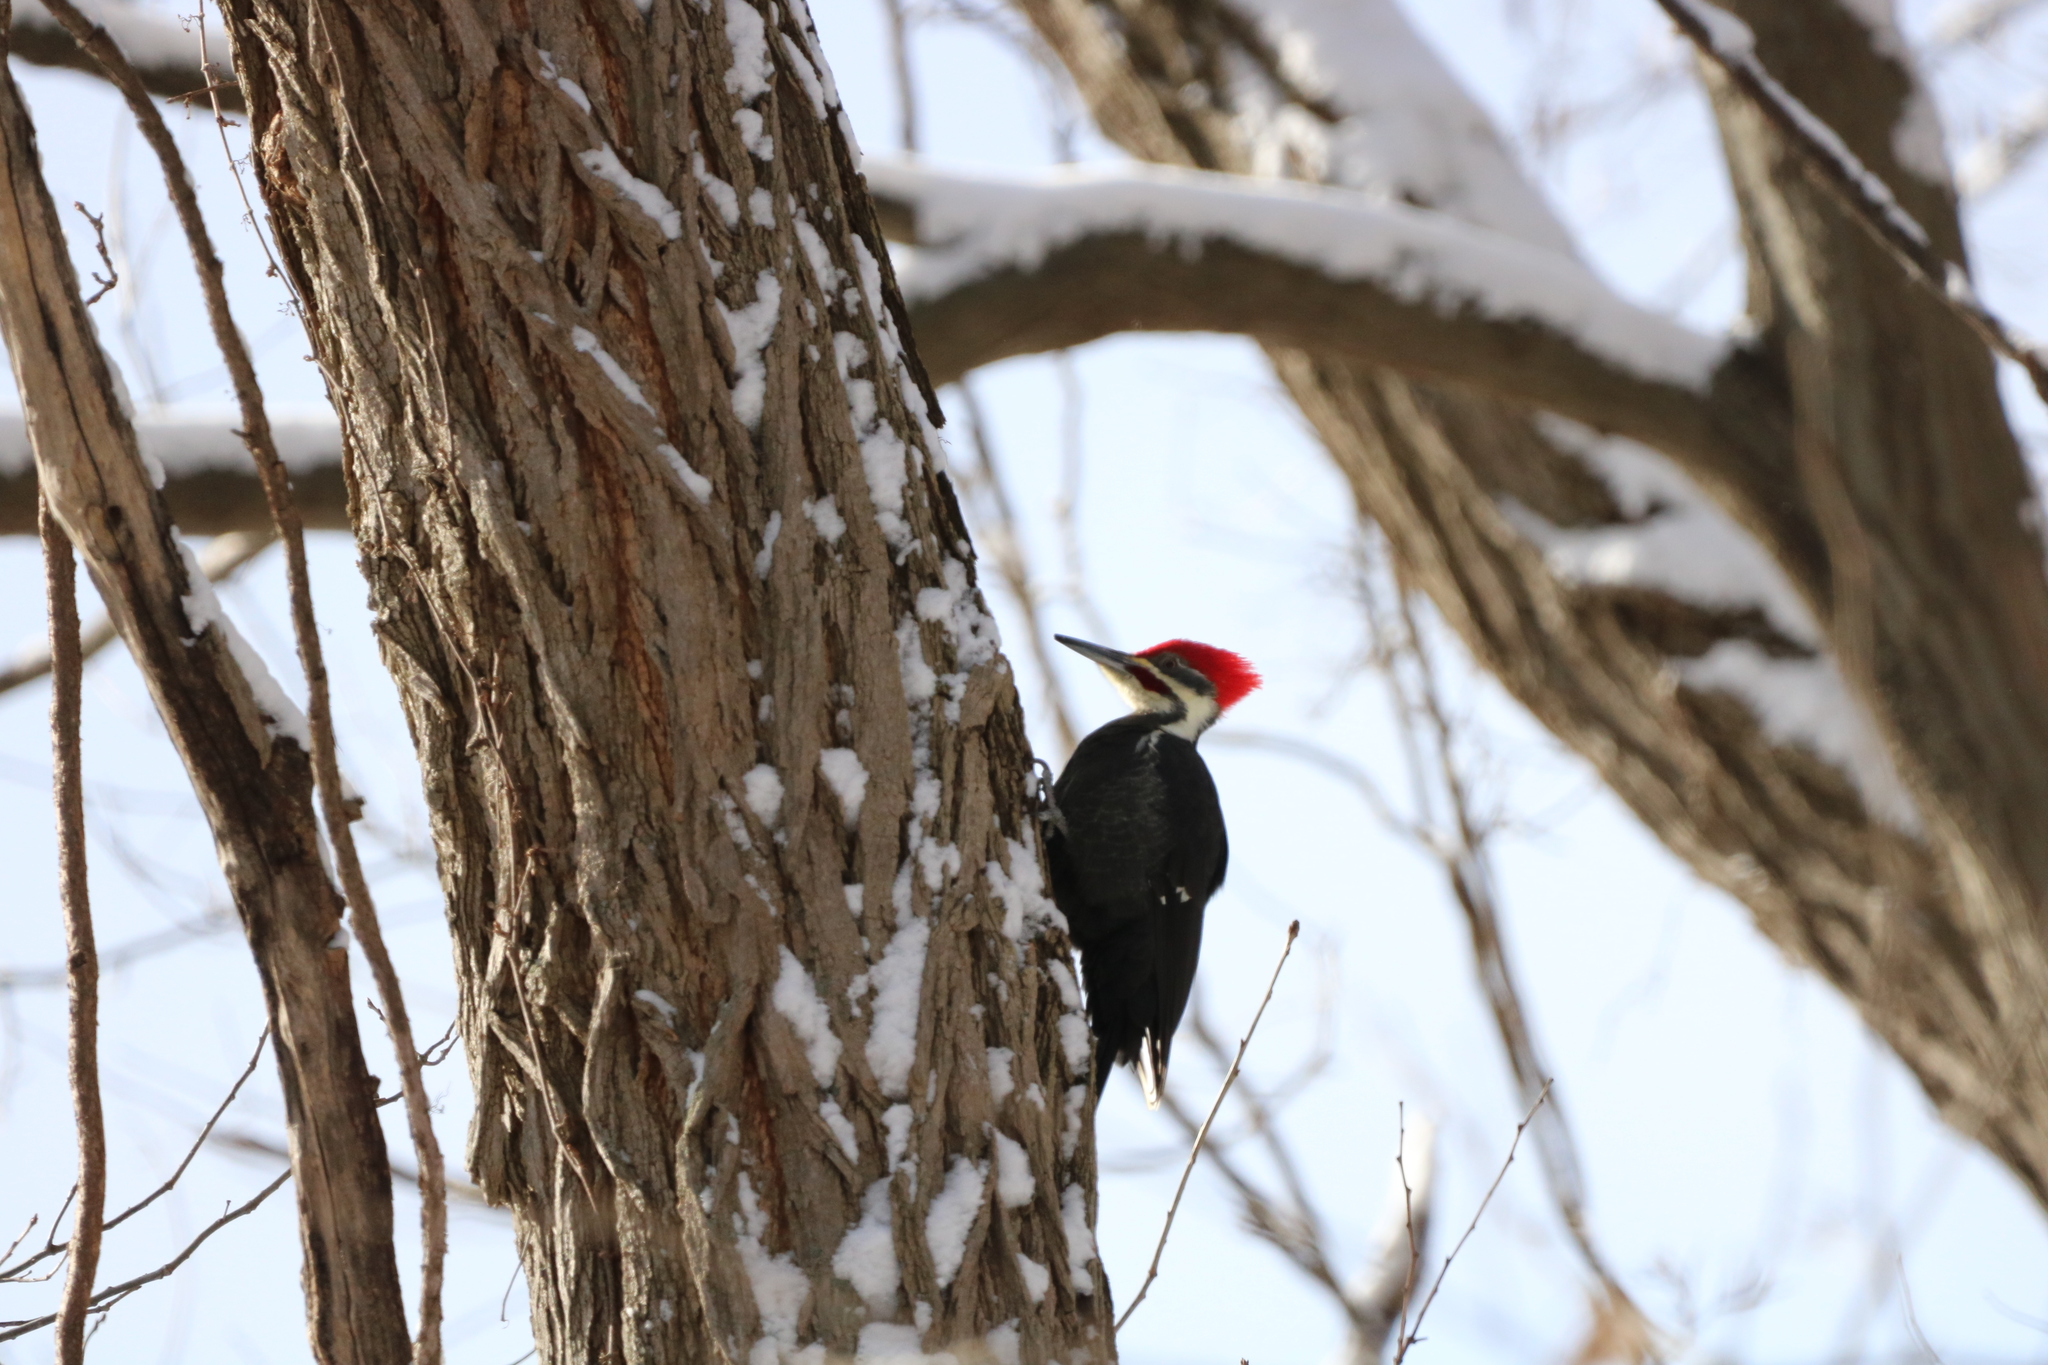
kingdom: Animalia
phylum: Chordata
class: Aves
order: Piciformes
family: Picidae
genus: Dryocopus
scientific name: Dryocopus pileatus
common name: Pileated woodpecker
